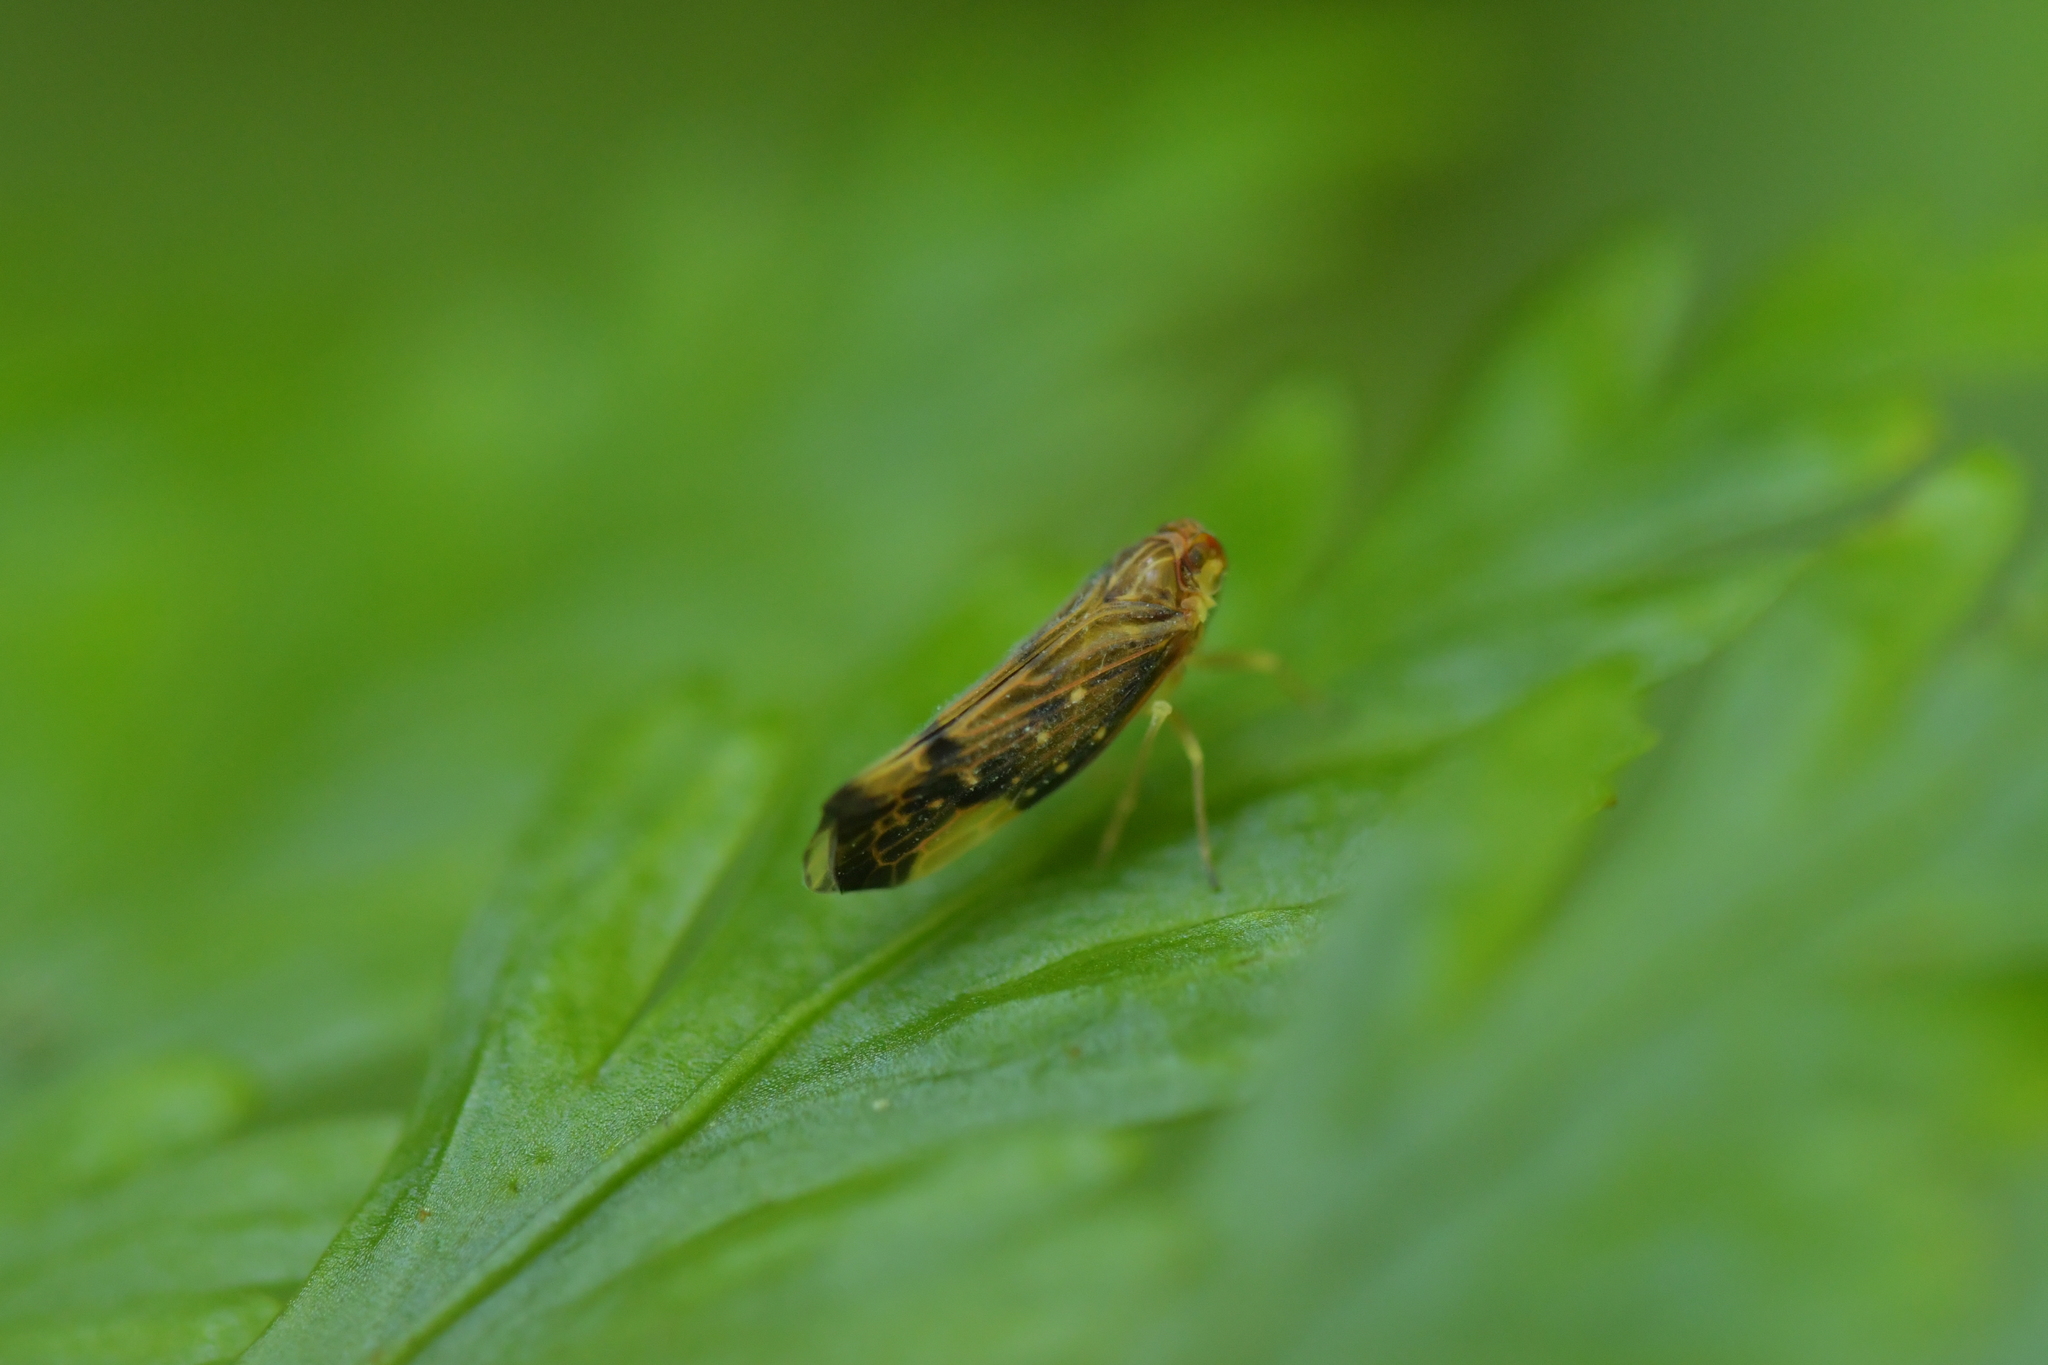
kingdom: Animalia
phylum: Arthropoda
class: Insecta
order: Hemiptera
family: Derbidae
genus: Eocenchrea
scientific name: Eocenchrea maorica
